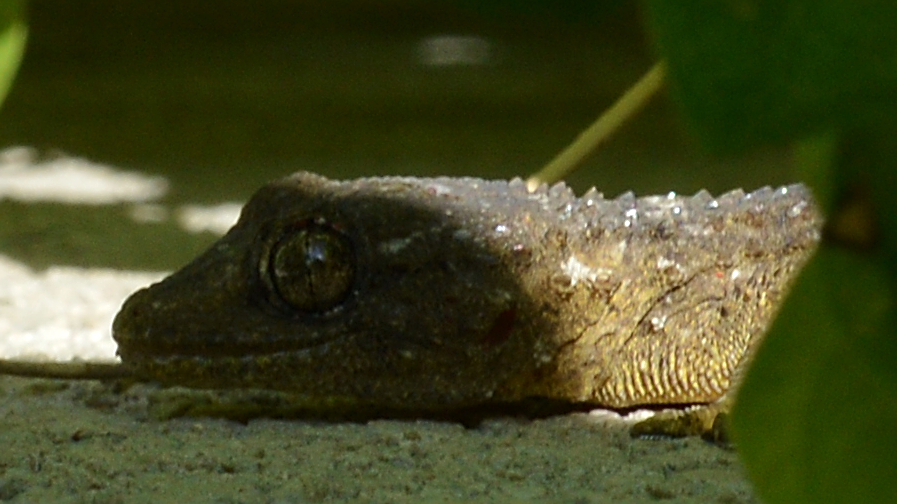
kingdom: Animalia
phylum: Chordata
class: Squamata
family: Phyllodactylidae
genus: Tarentola
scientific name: Tarentola mauritanica
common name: Moorish gecko
